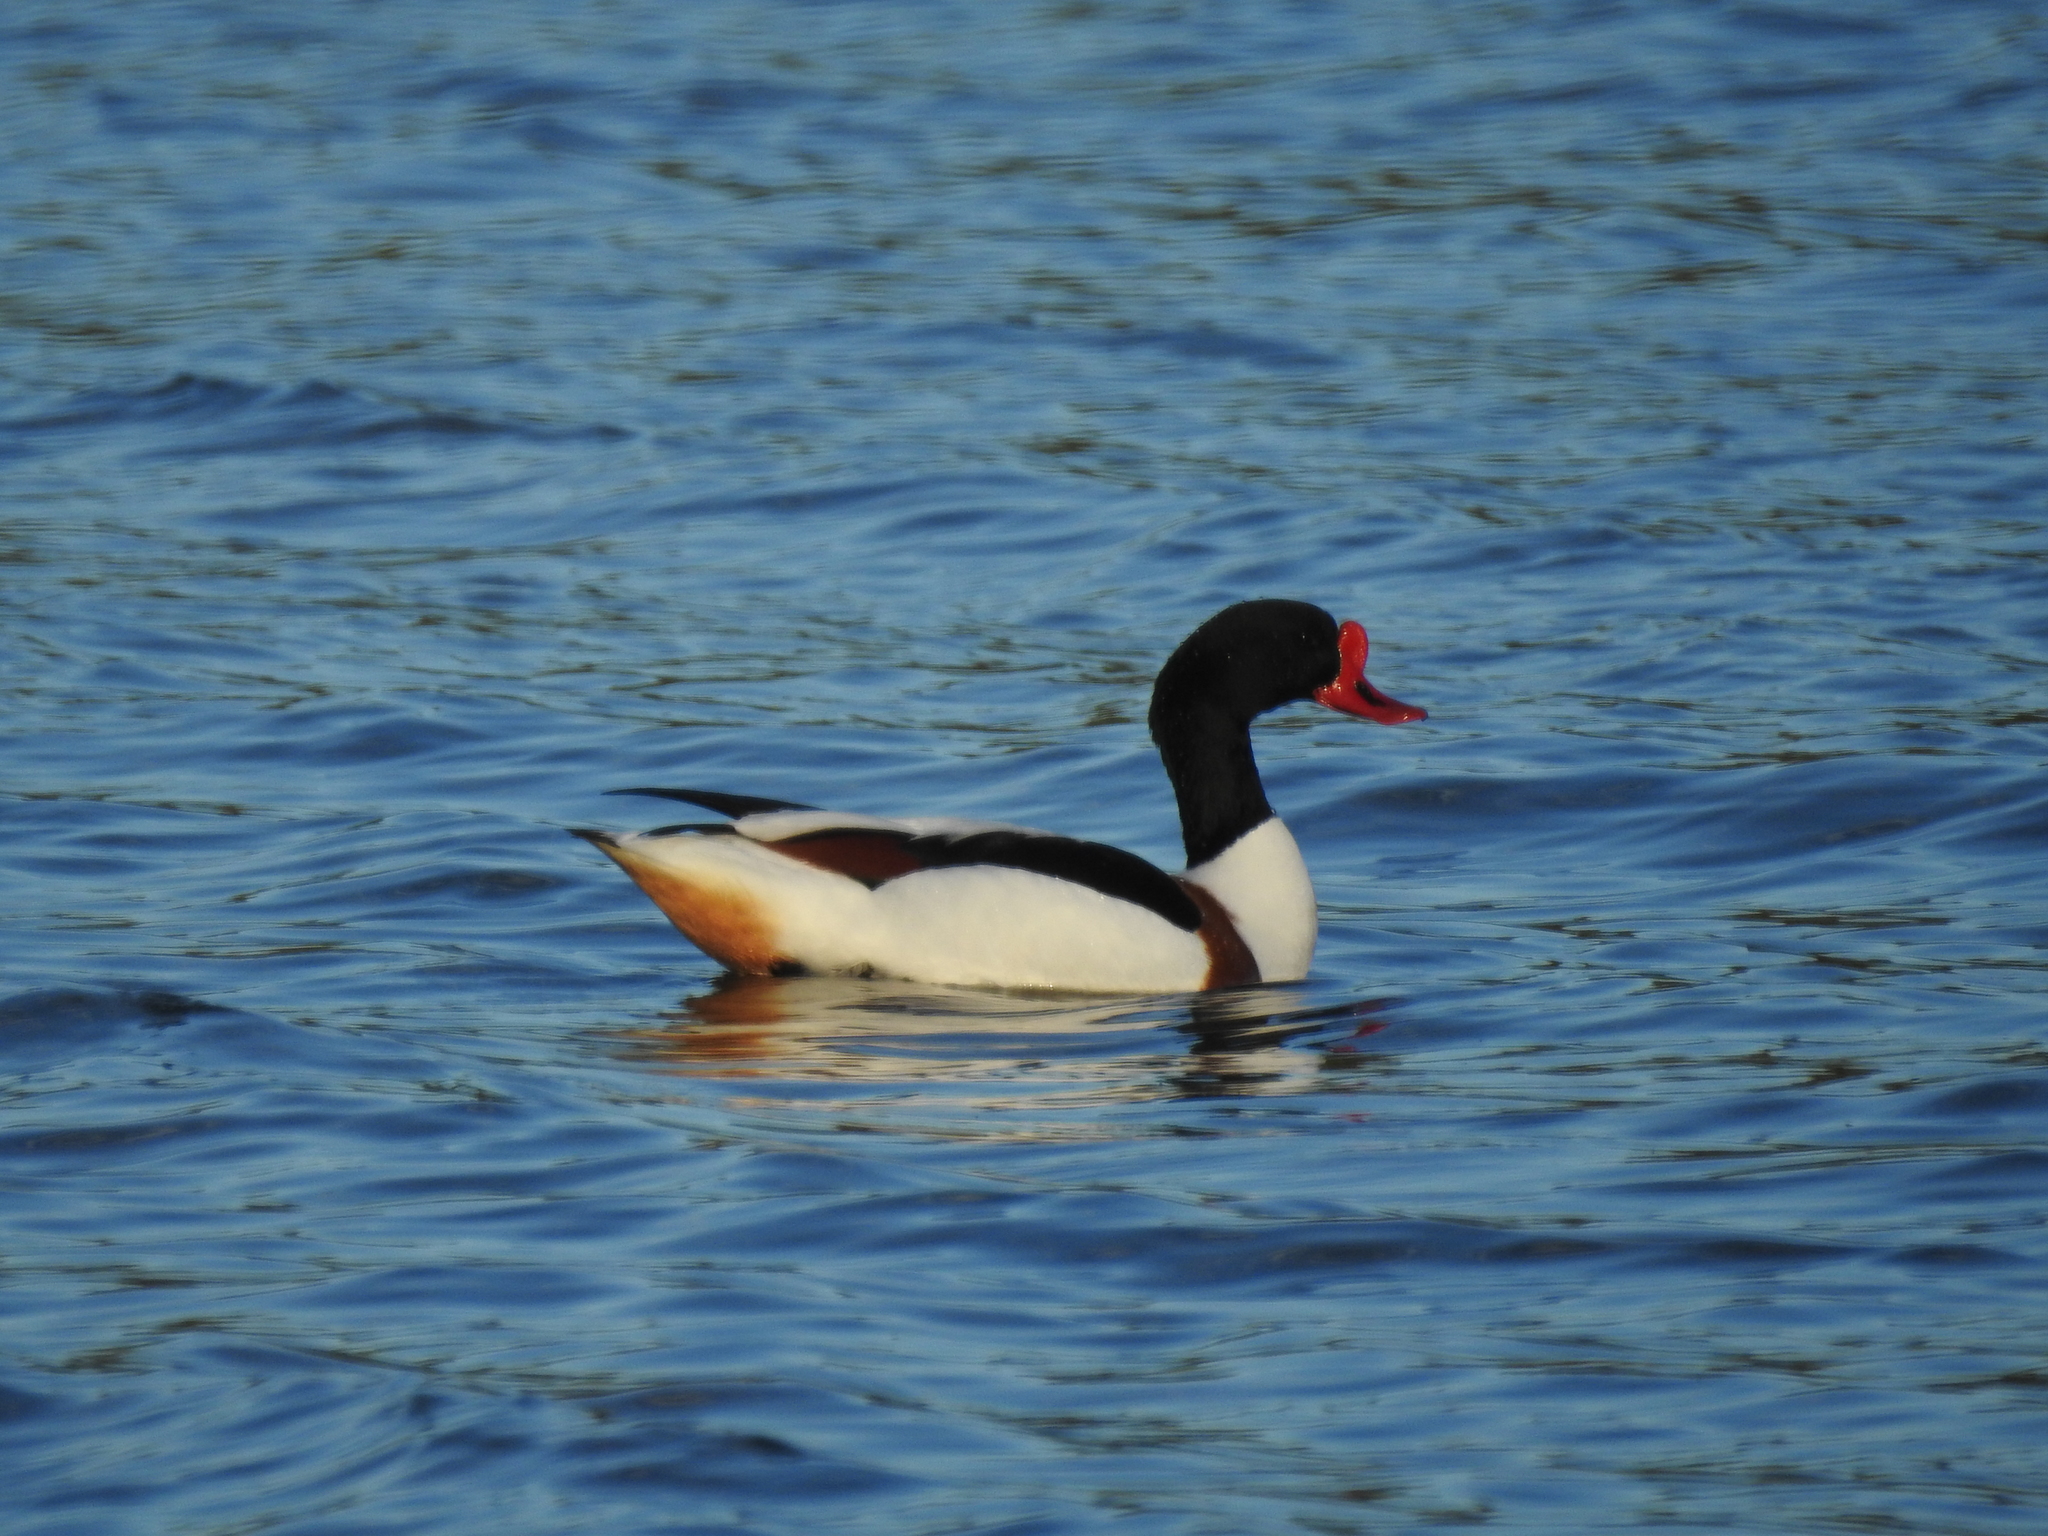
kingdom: Animalia
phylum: Chordata
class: Aves
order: Anseriformes
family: Anatidae
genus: Tadorna
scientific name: Tadorna tadorna
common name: Common shelduck
